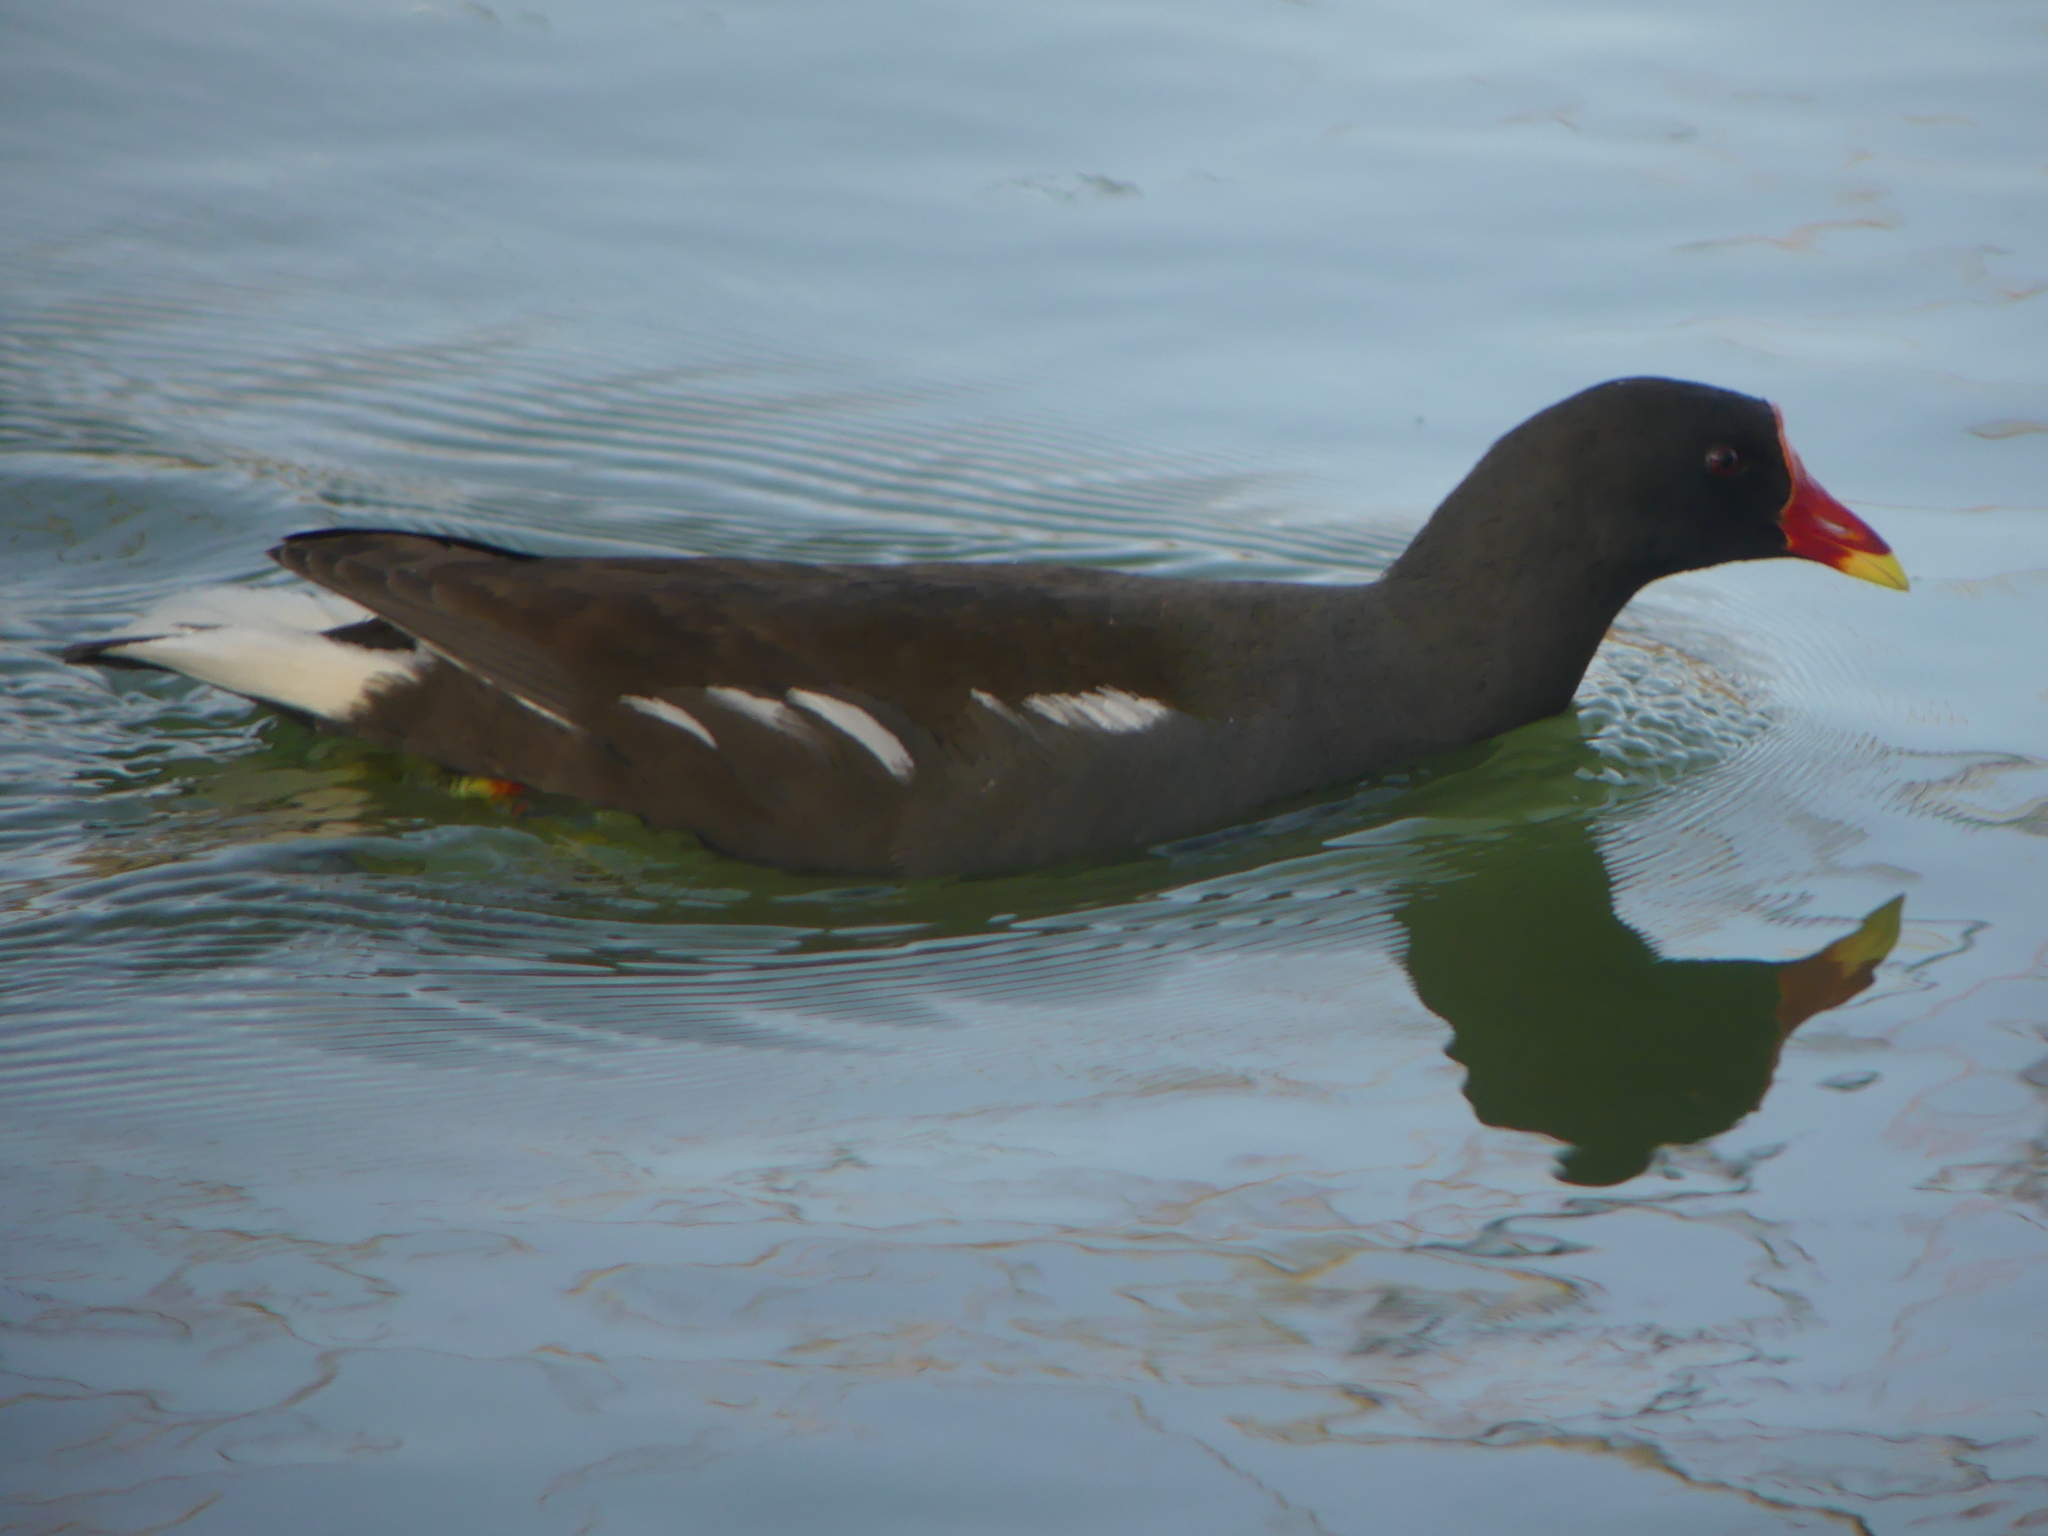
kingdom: Animalia
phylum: Chordata
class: Aves
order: Gruiformes
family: Rallidae
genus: Gallinula
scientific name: Gallinula chloropus
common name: Common moorhen
